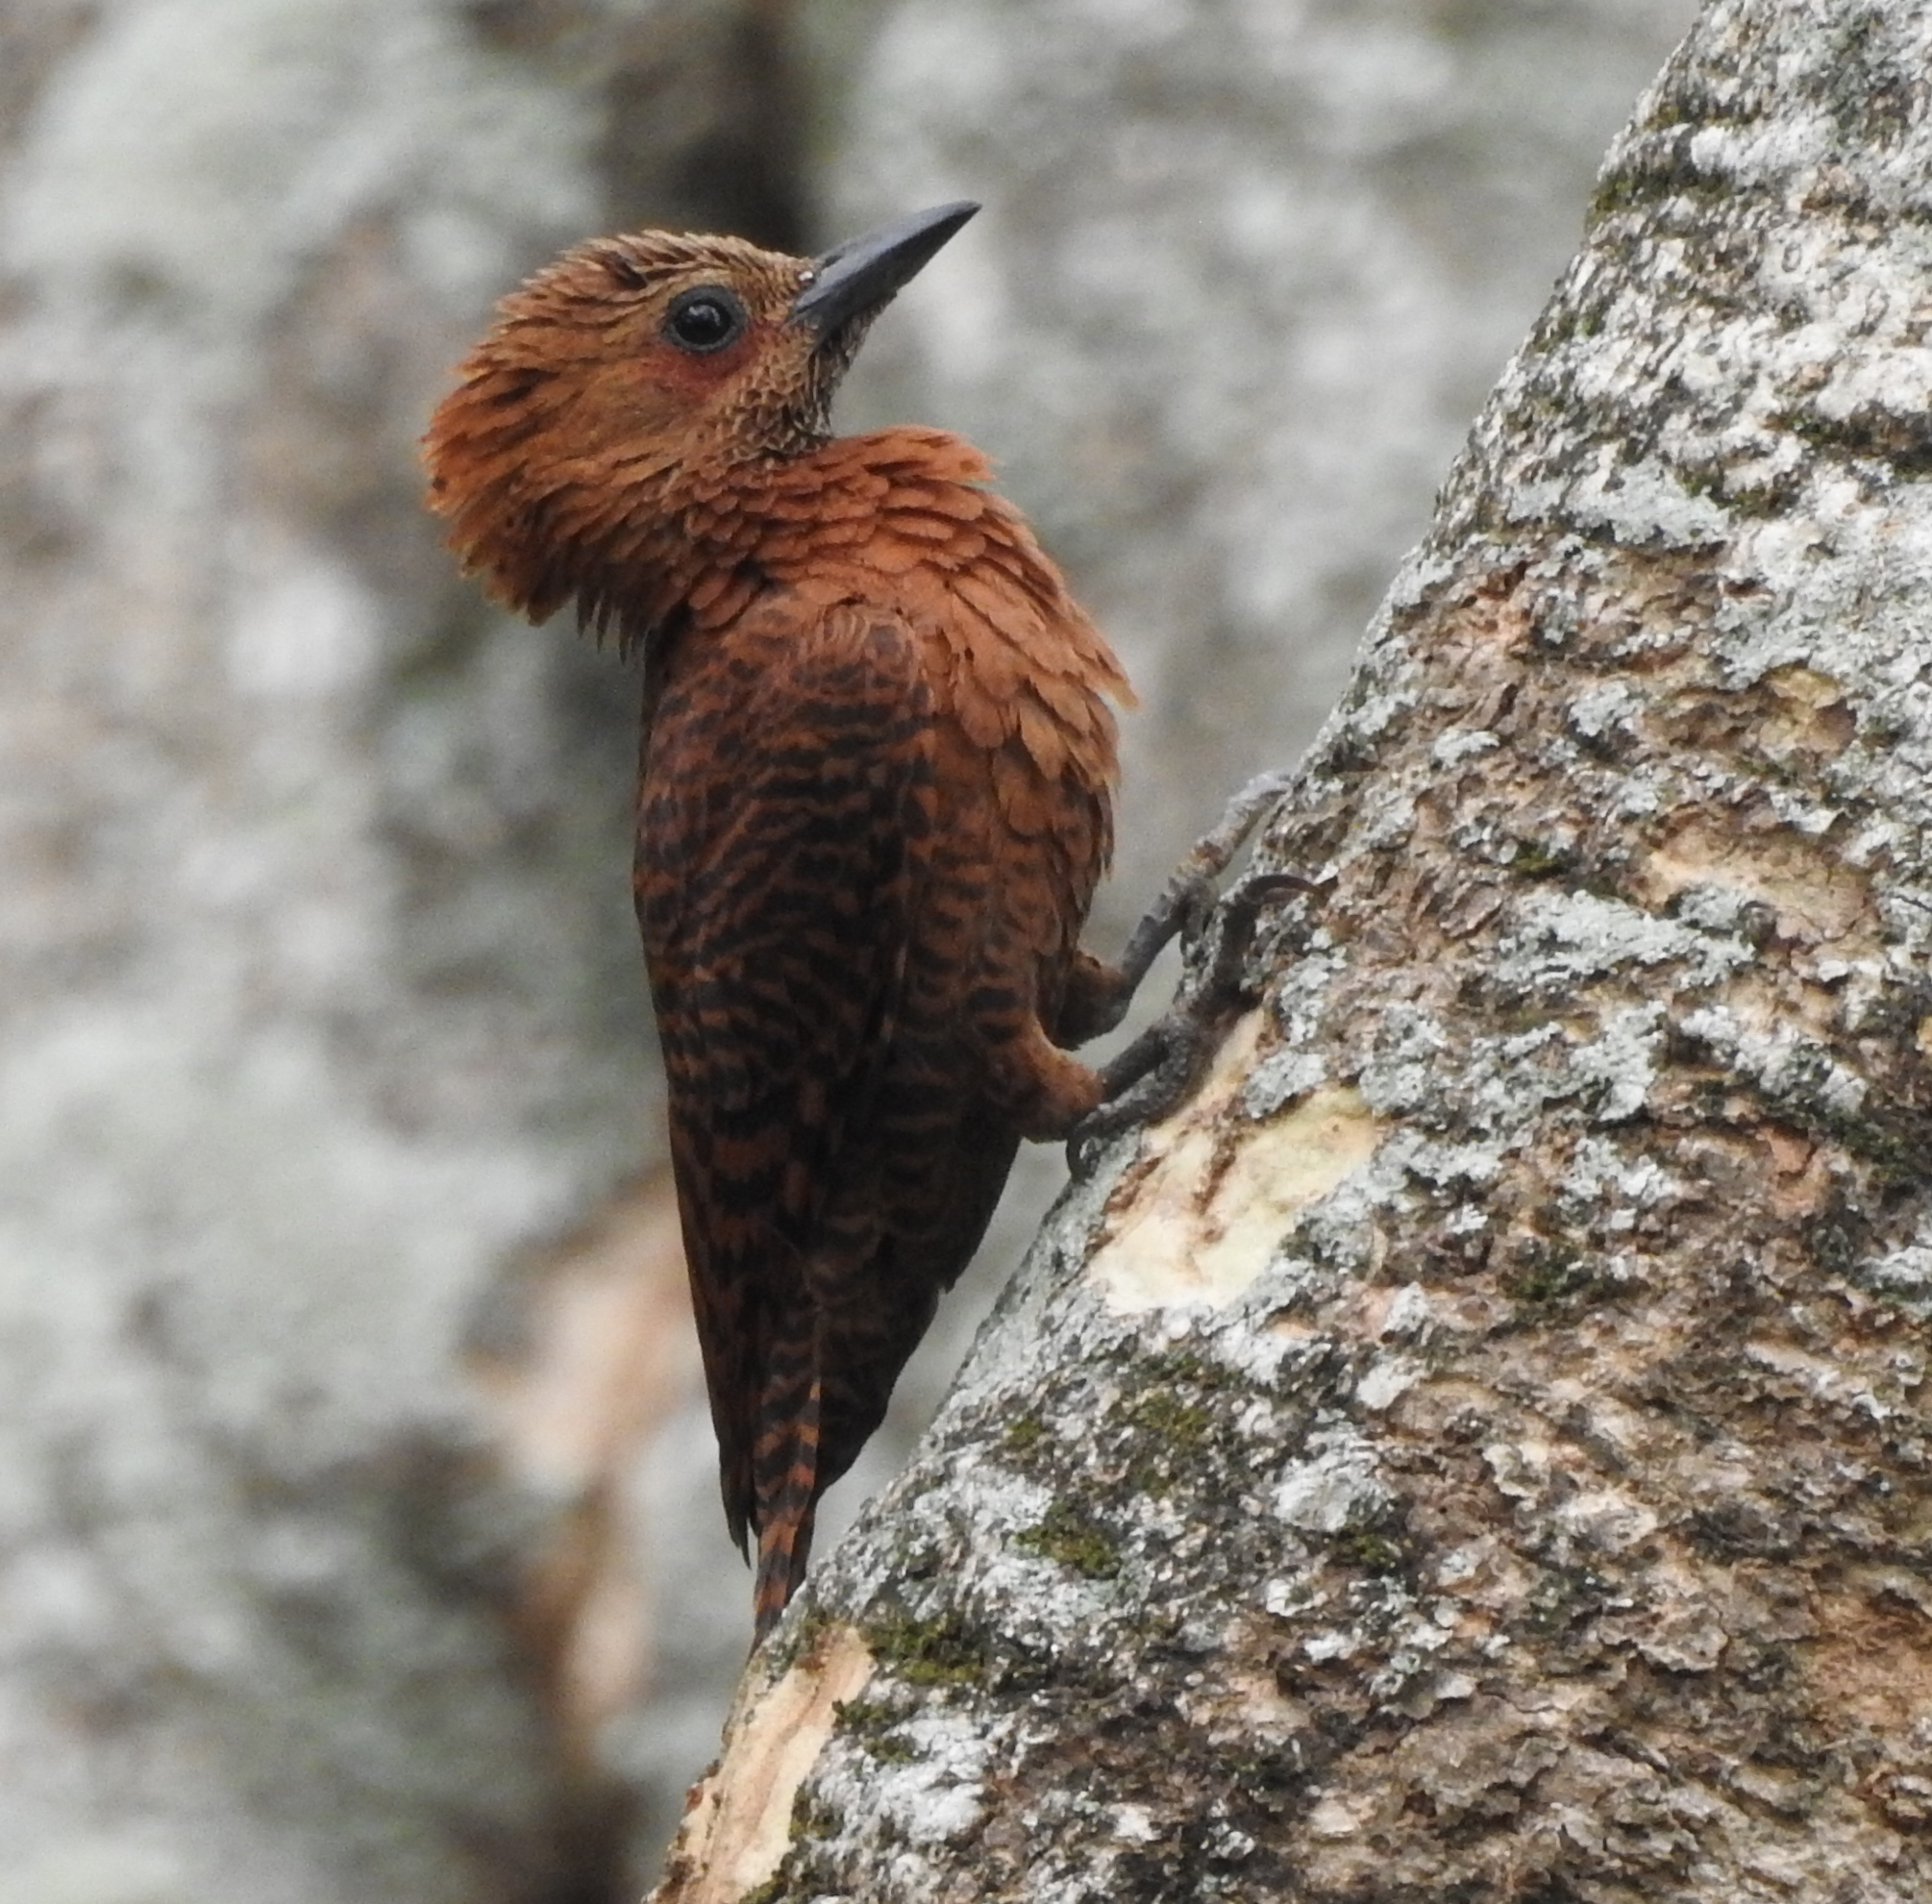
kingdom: Animalia
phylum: Chordata
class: Aves
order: Piciformes
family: Picidae
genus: Micropternus
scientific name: Micropternus brachyurus
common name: Rufous woodpecker
